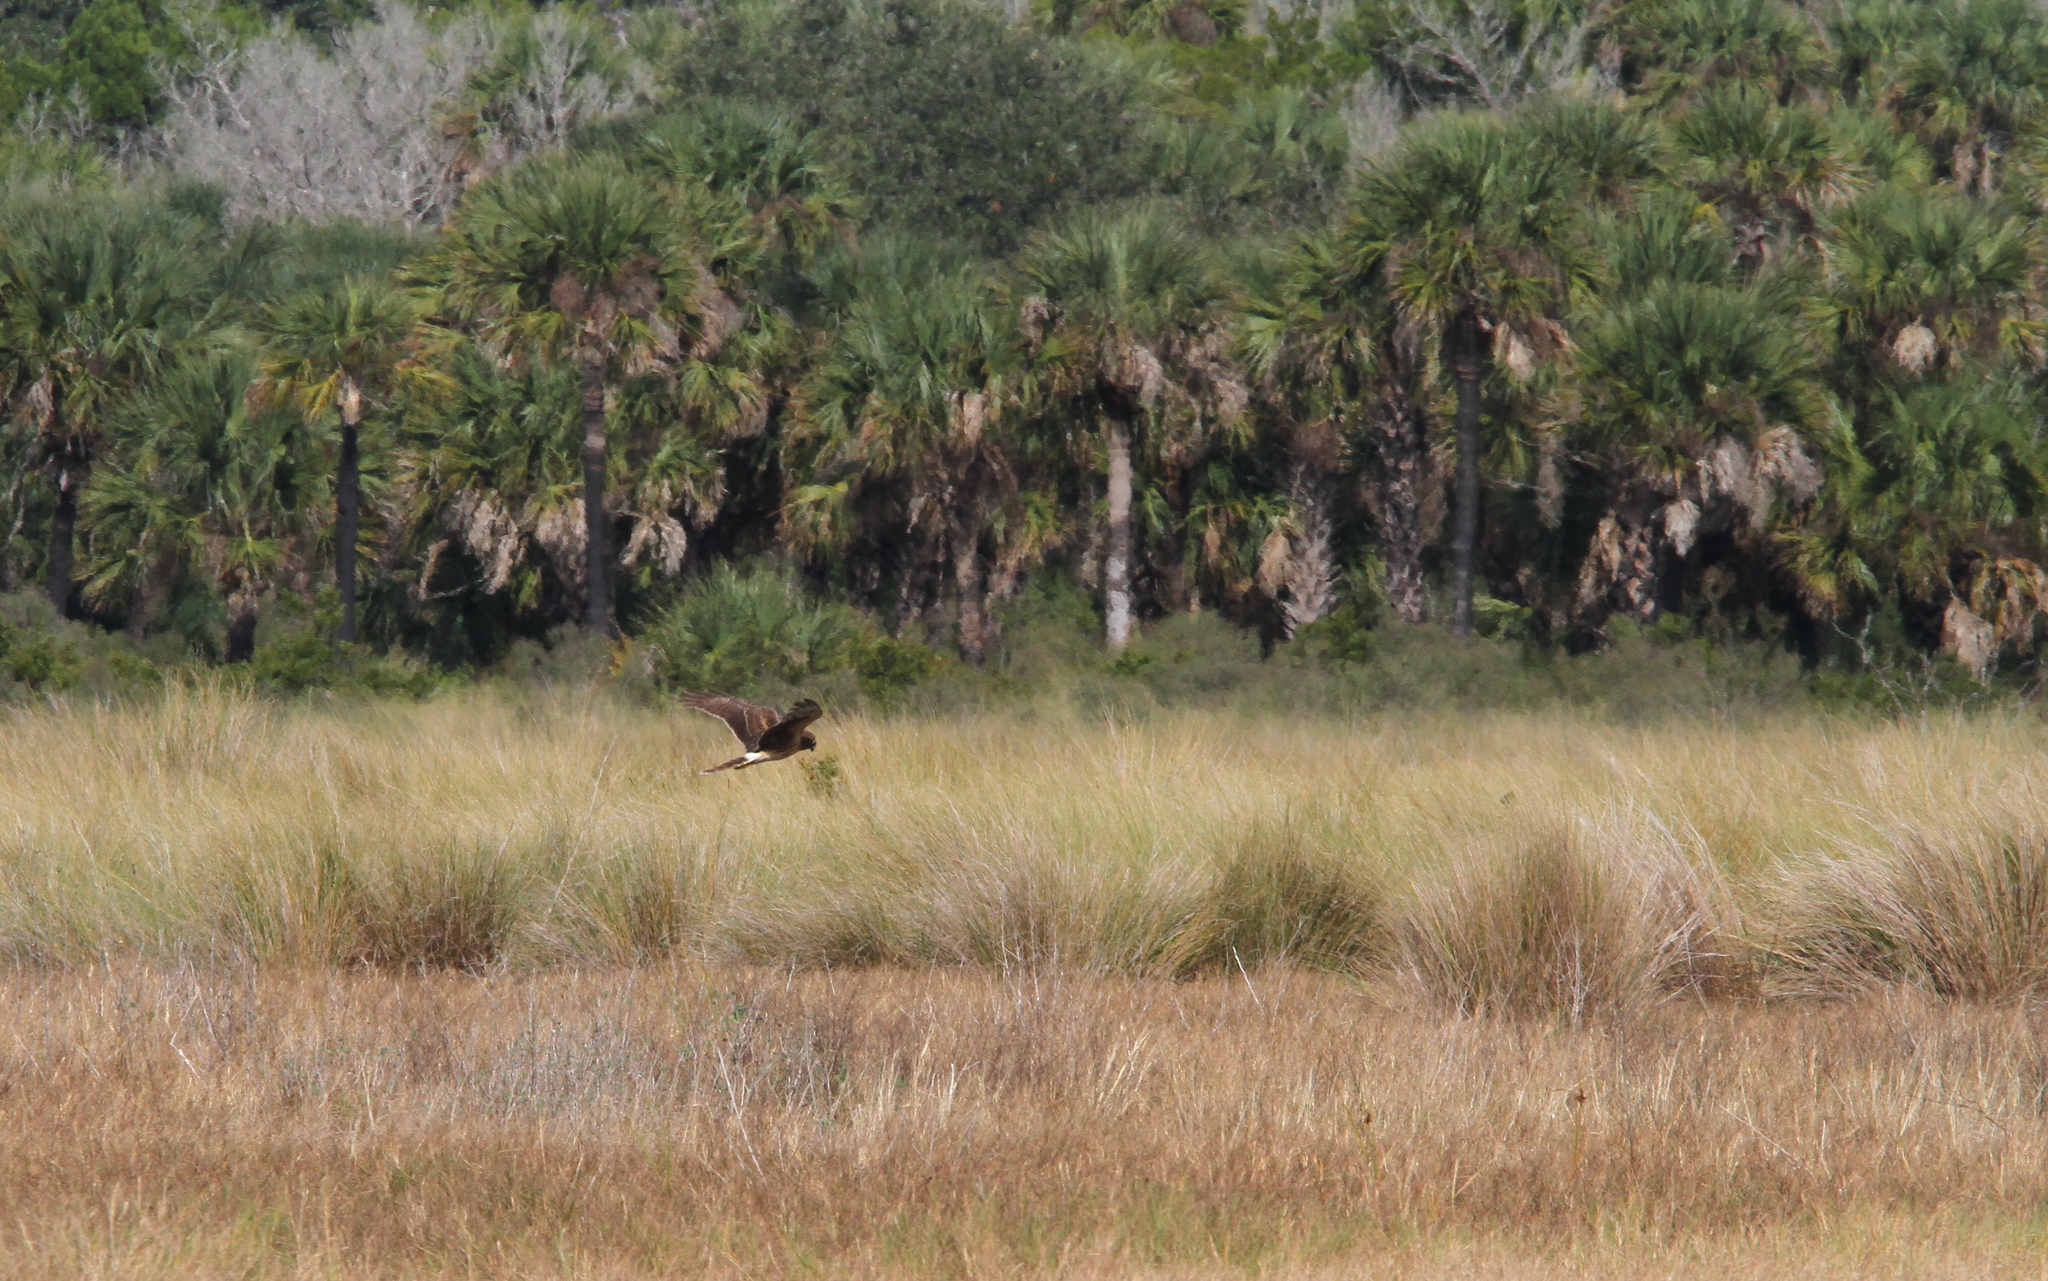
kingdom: Animalia
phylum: Chordata
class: Aves
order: Accipitriformes
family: Accipitridae
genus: Circus
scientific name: Circus cyaneus
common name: Hen harrier
